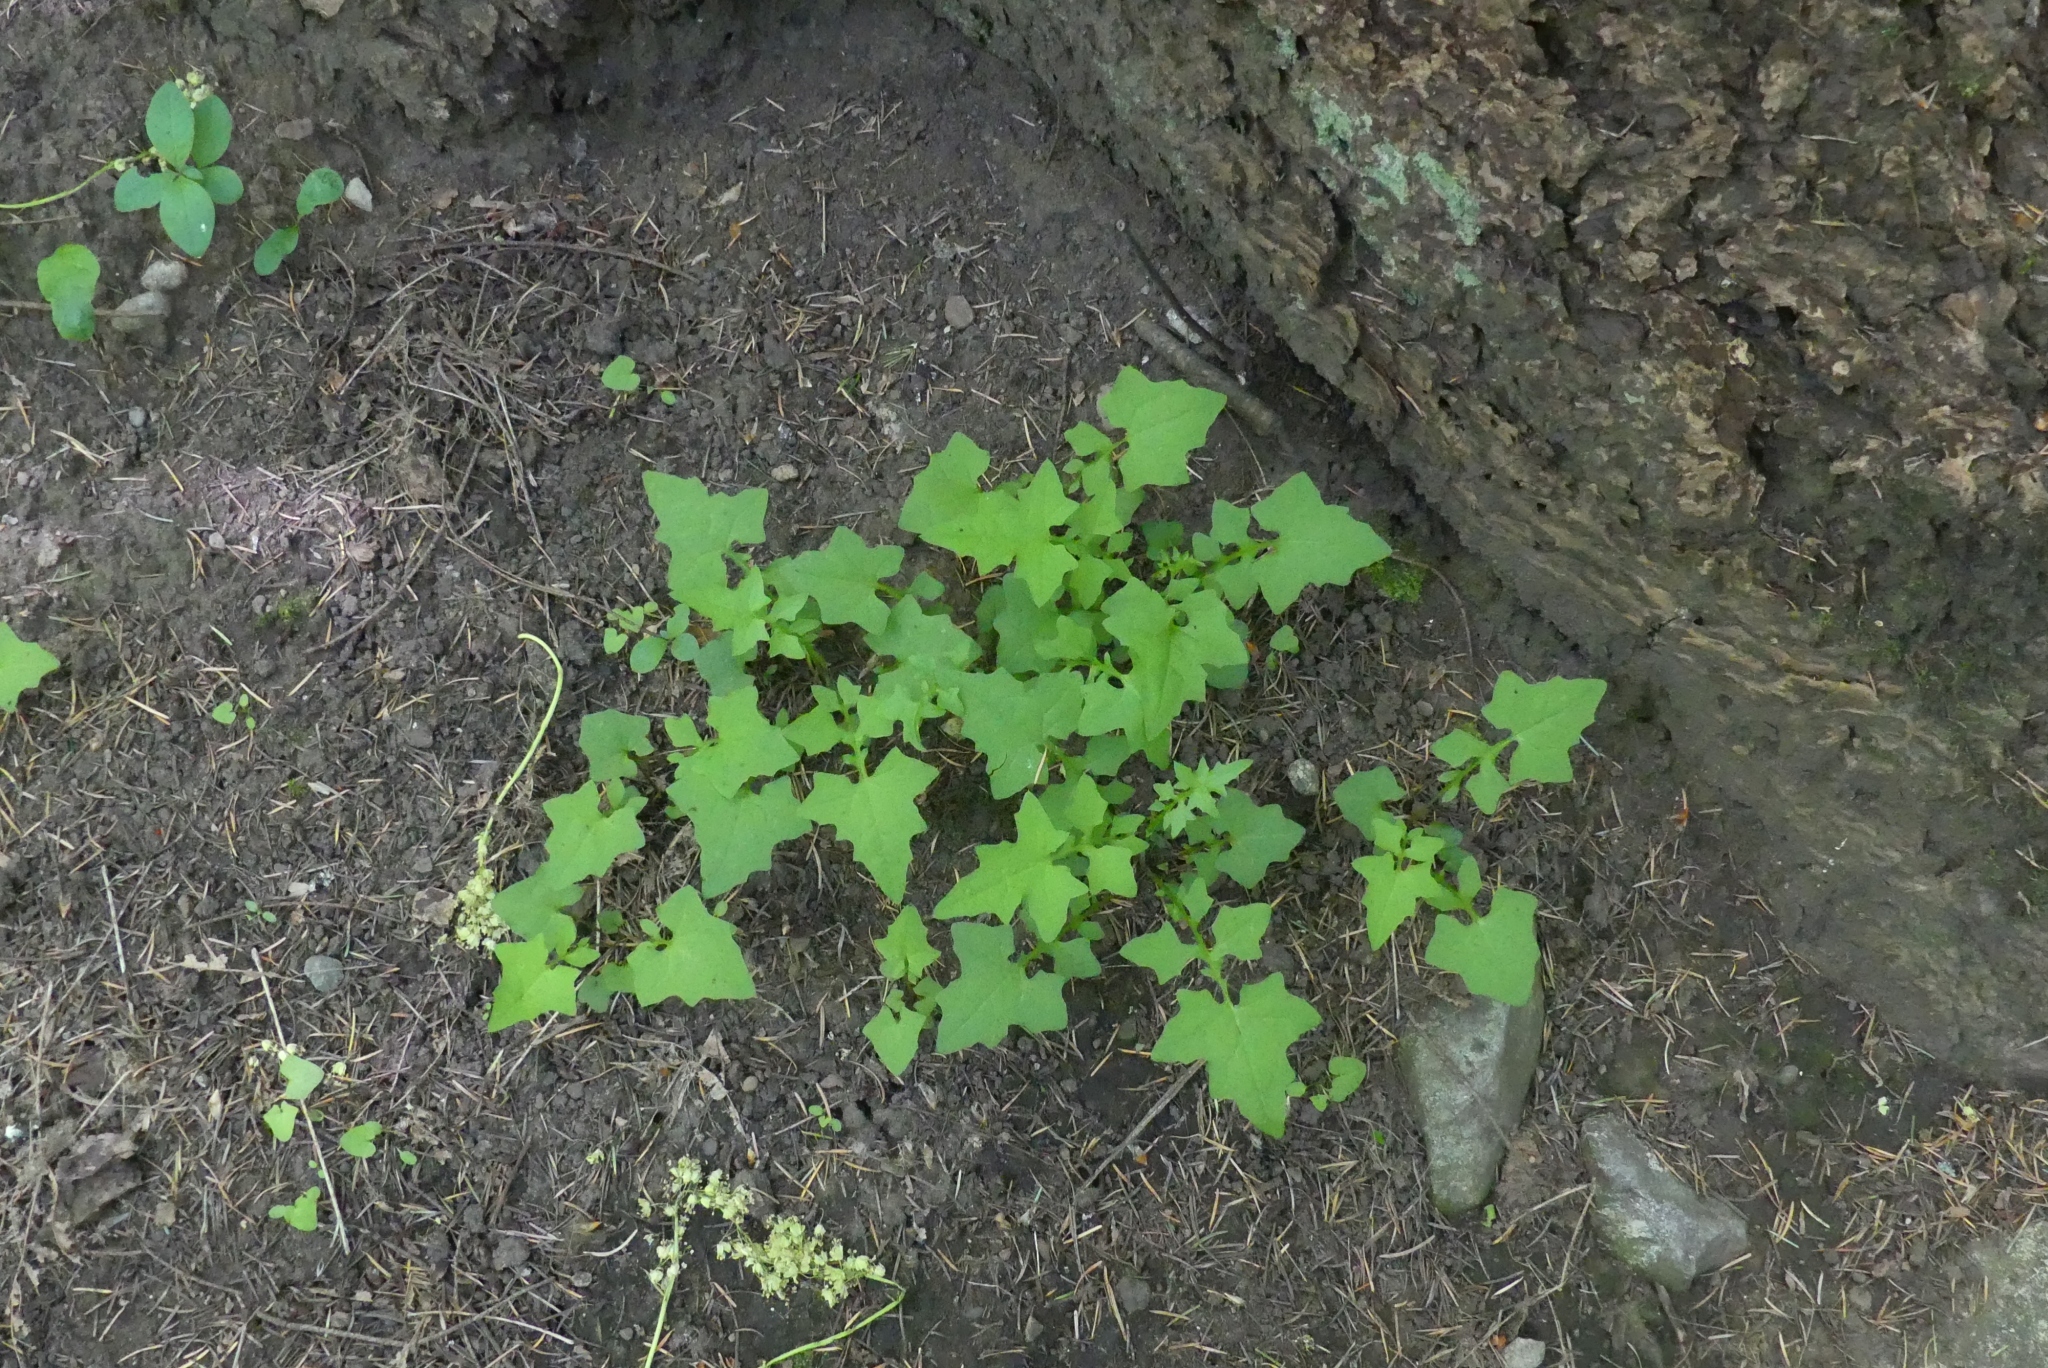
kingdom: Plantae
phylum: Tracheophyta
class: Magnoliopsida
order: Asterales
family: Asteraceae
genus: Mycelis
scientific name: Mycelis muralis
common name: Wall lettuce
